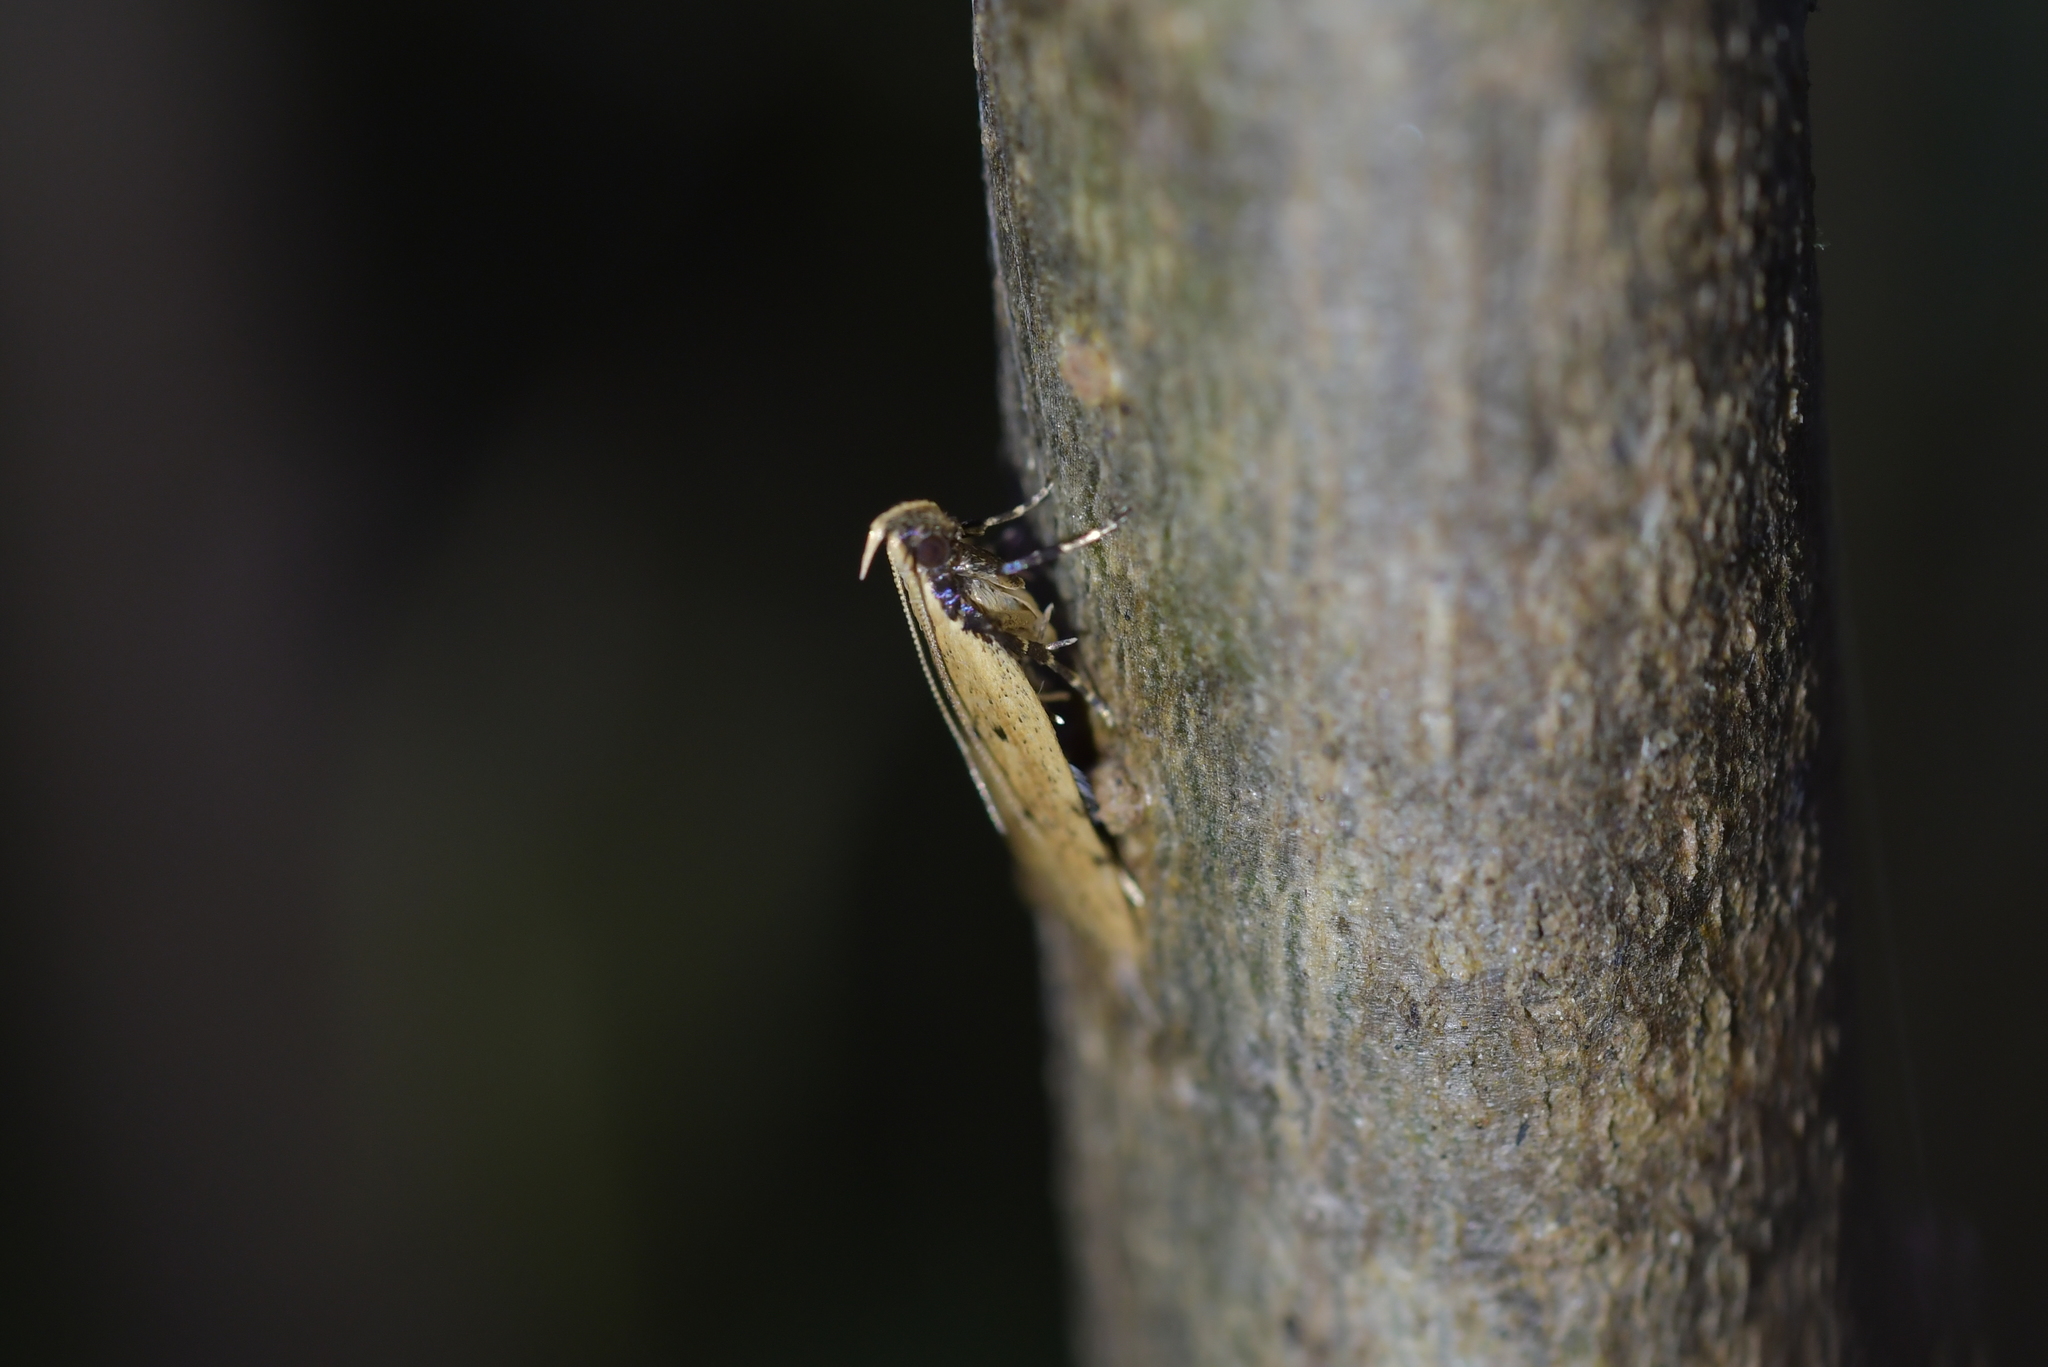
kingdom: Animalia
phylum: Arthropoda
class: Insecta
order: Lepidoptera
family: Oecophoridae
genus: Gymnobathra
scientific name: Gymnobathra calliploca
